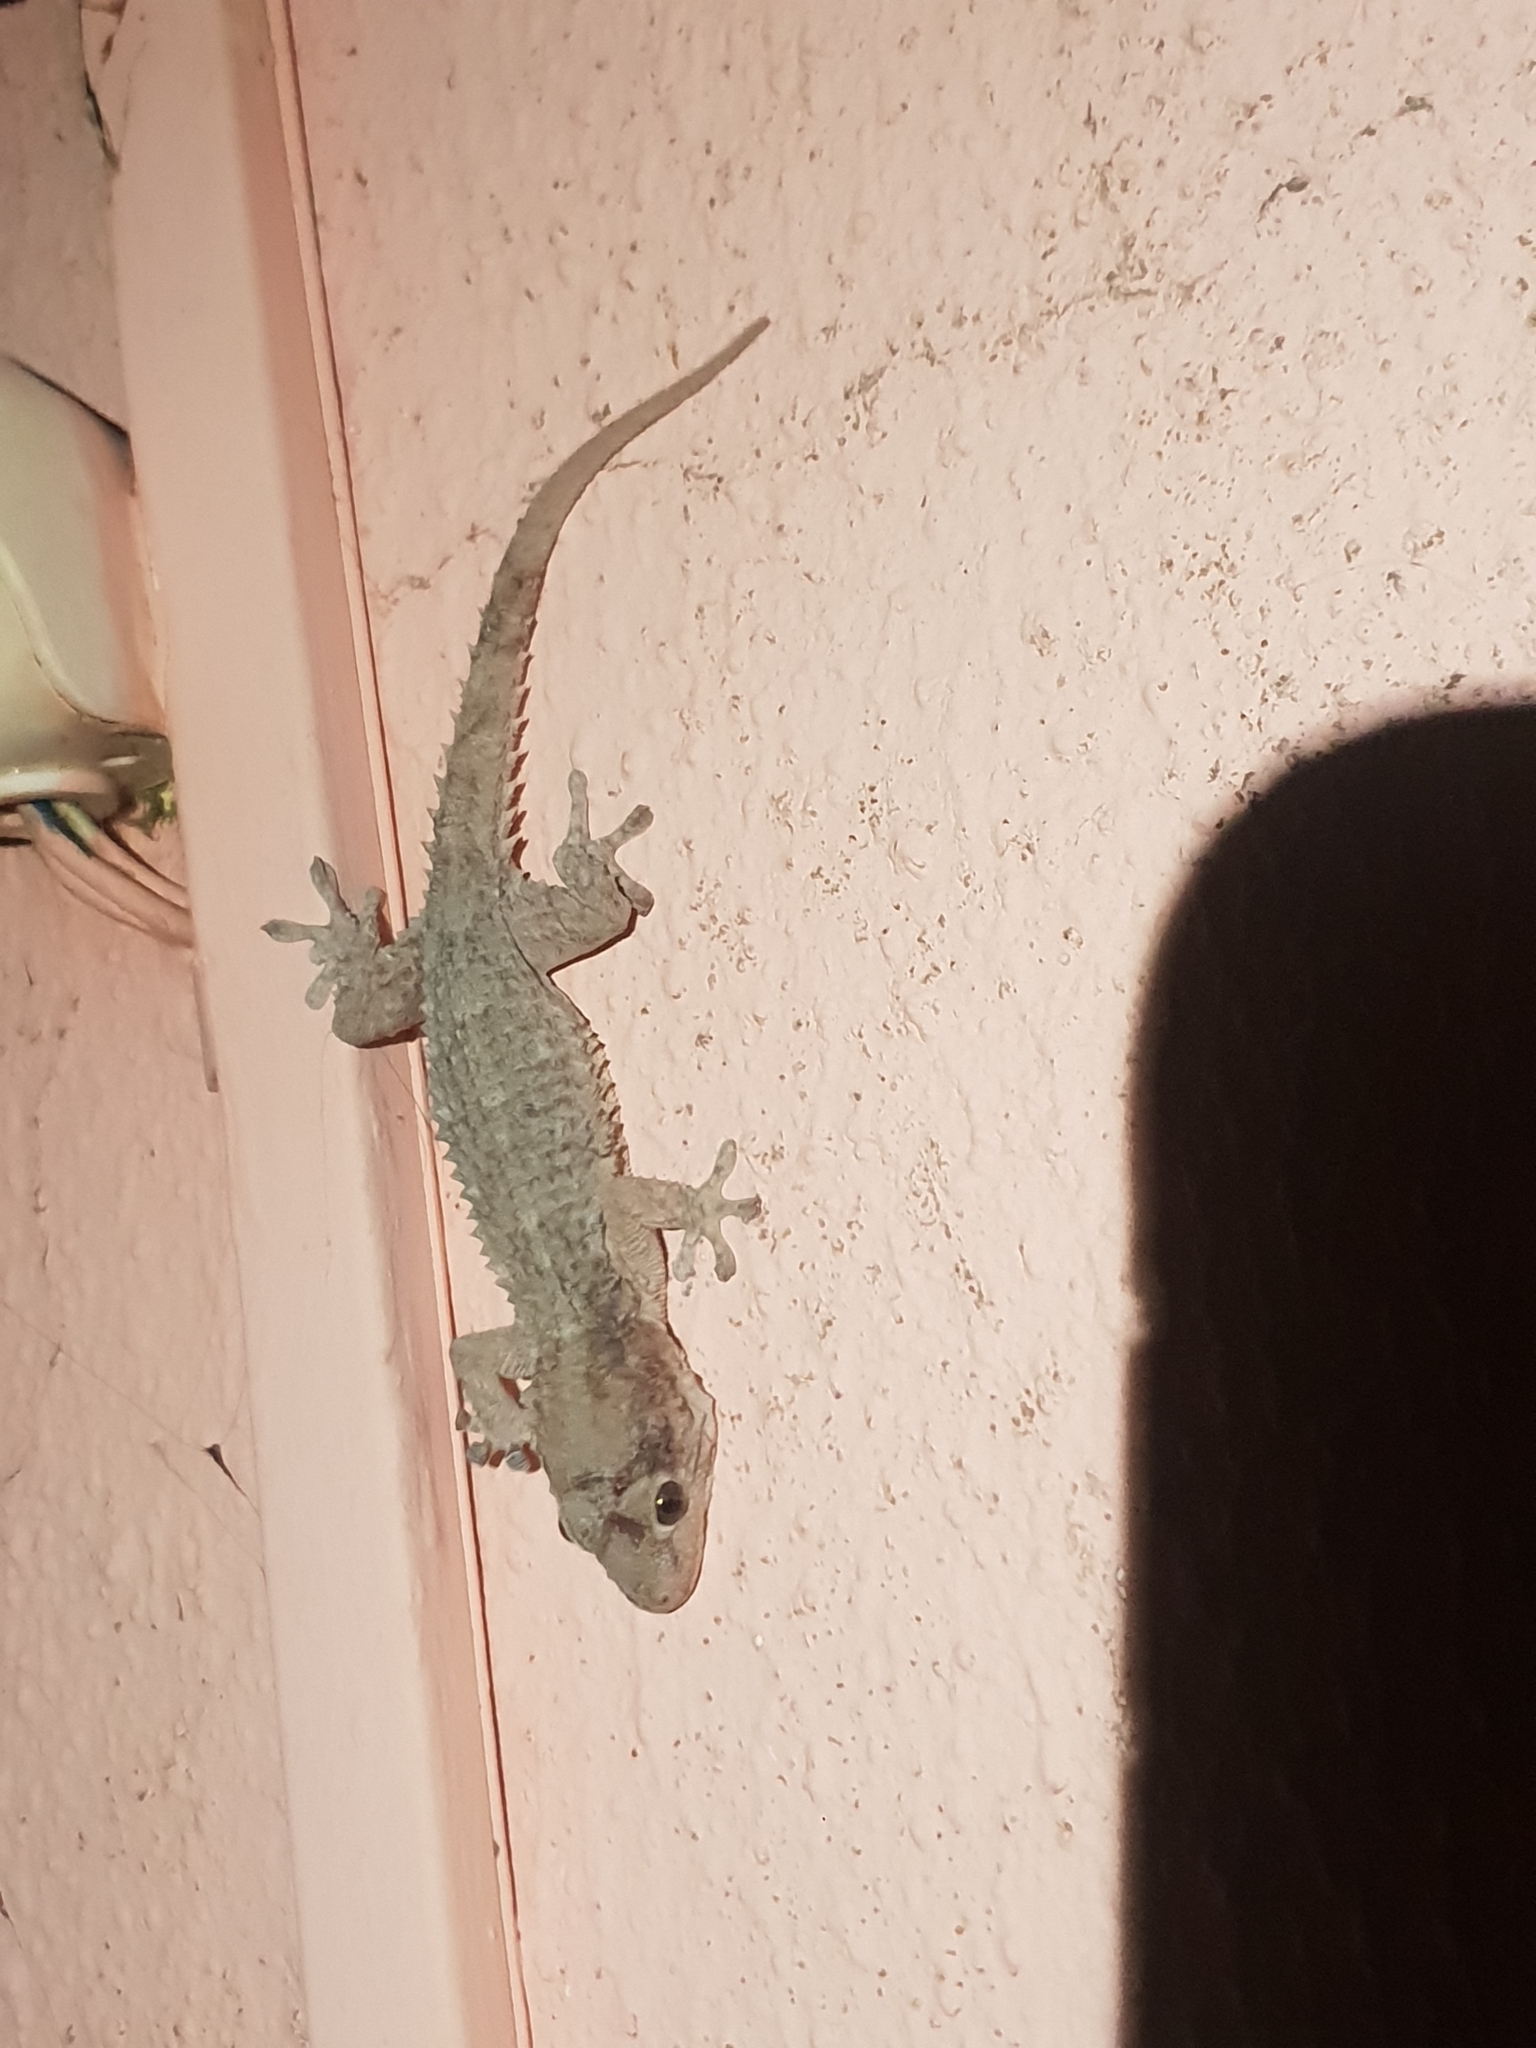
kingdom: Animalia
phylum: Chordata
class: Squamata
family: Phyllodactylidae
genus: Tarentola
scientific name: Tarentola mauritanica
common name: Moorish gecko
